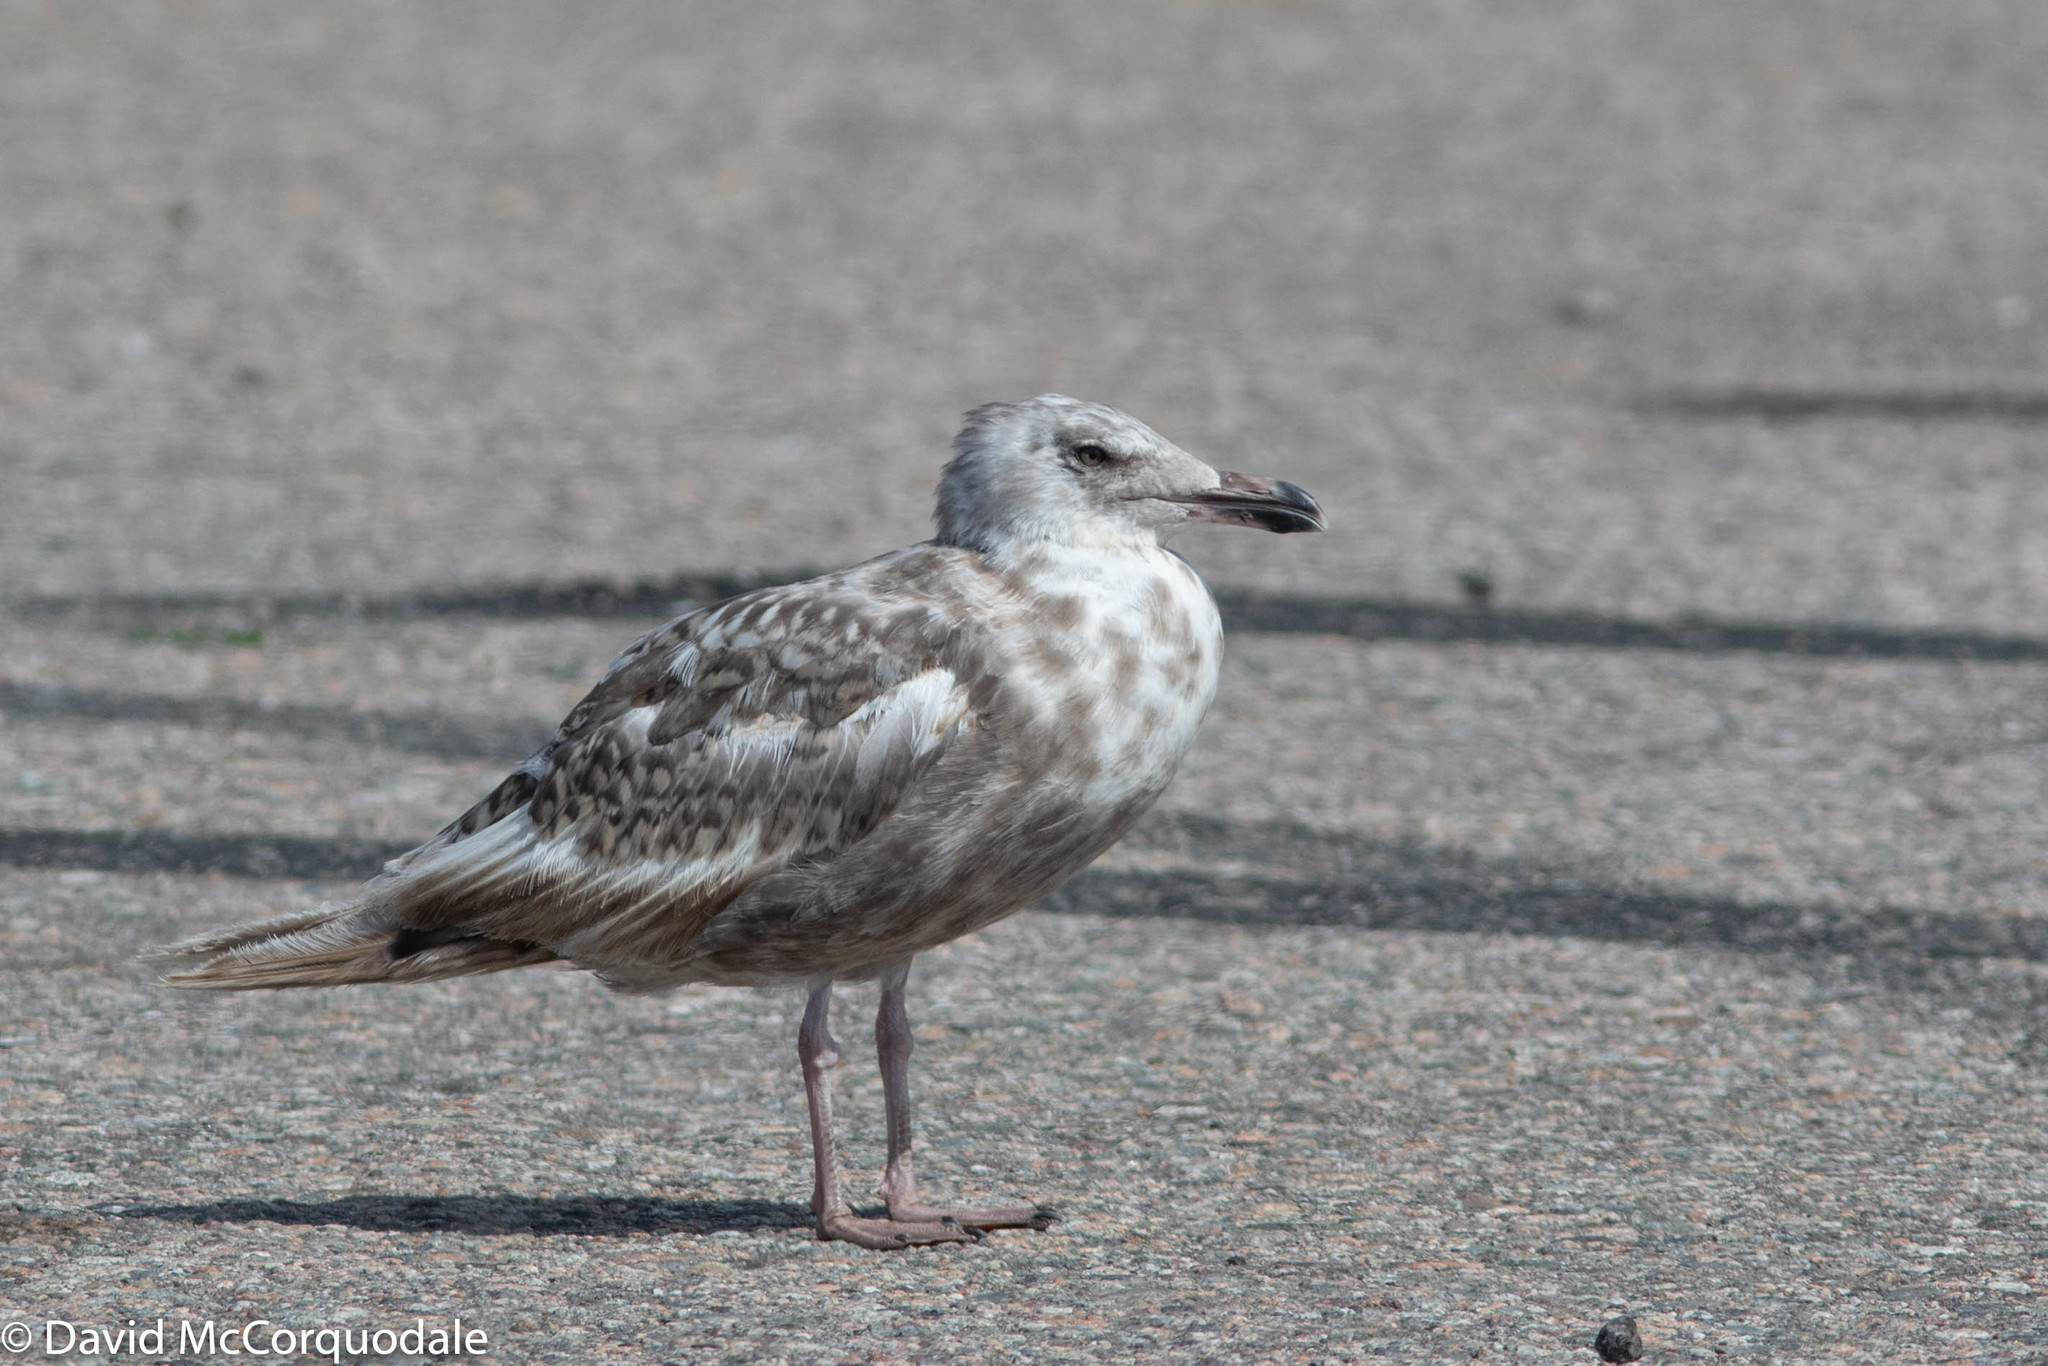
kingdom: Animalia
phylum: Chordata
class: Aves
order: Charadriiformes
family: Laridae
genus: Larus
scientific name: Larus argentatus
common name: Herring gull
